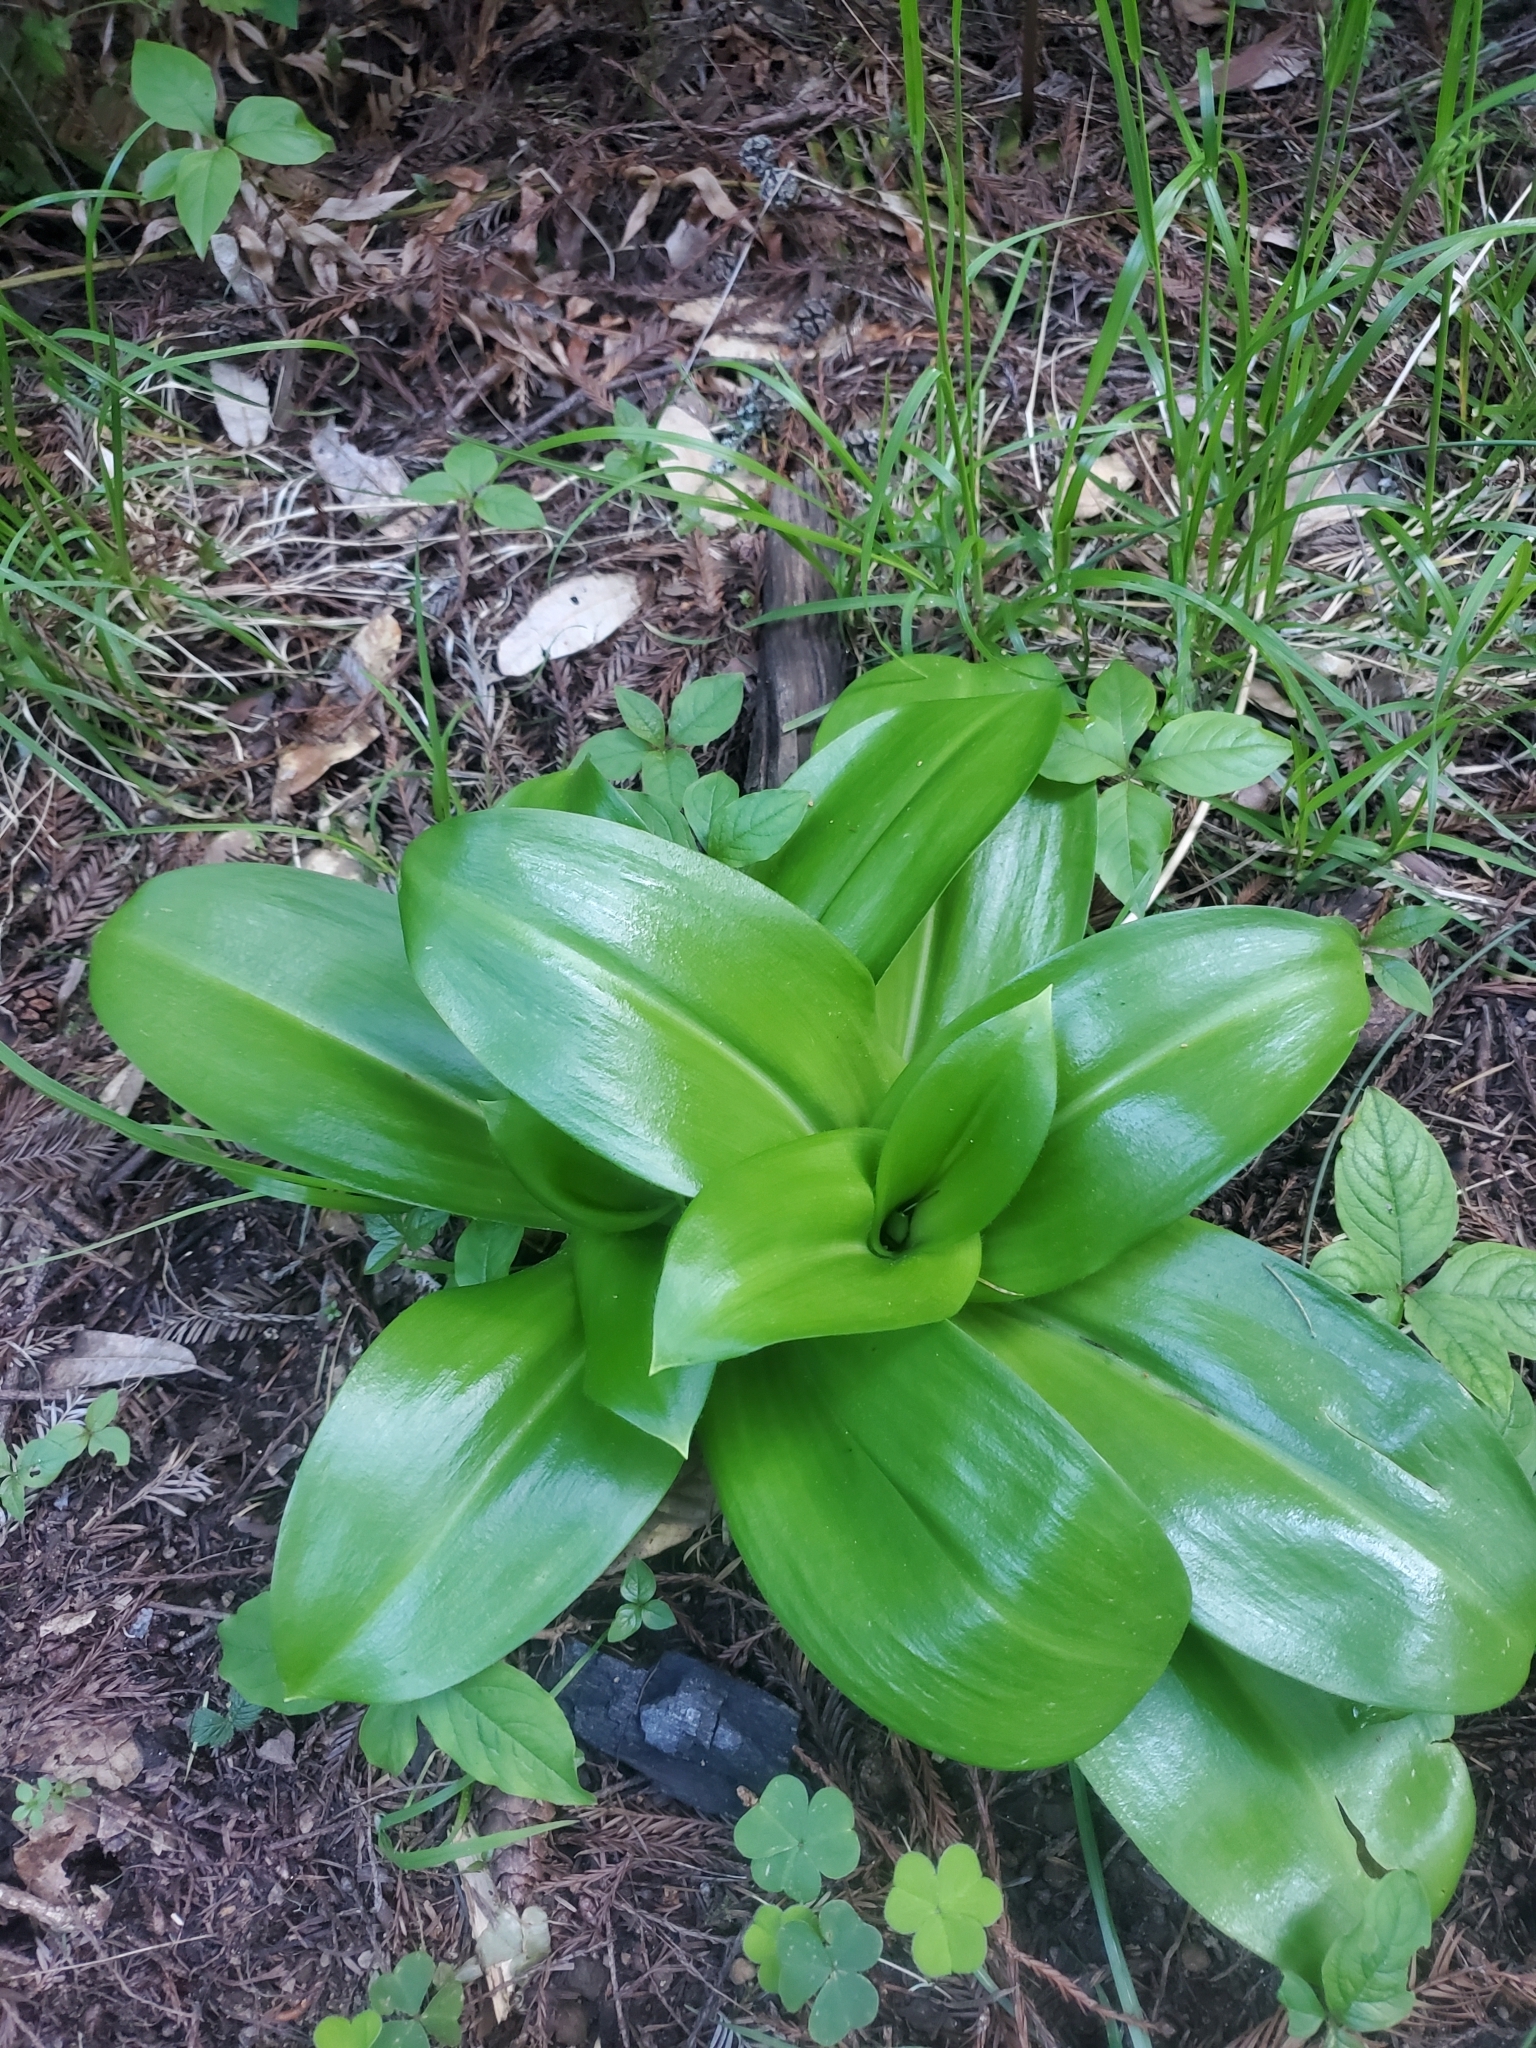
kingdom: Plantae
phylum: Tracheophyta
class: Liliopsida
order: Liliales
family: Liliaceae
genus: Clintonia
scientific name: Clintonia andrewsiana
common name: Red clintonia
